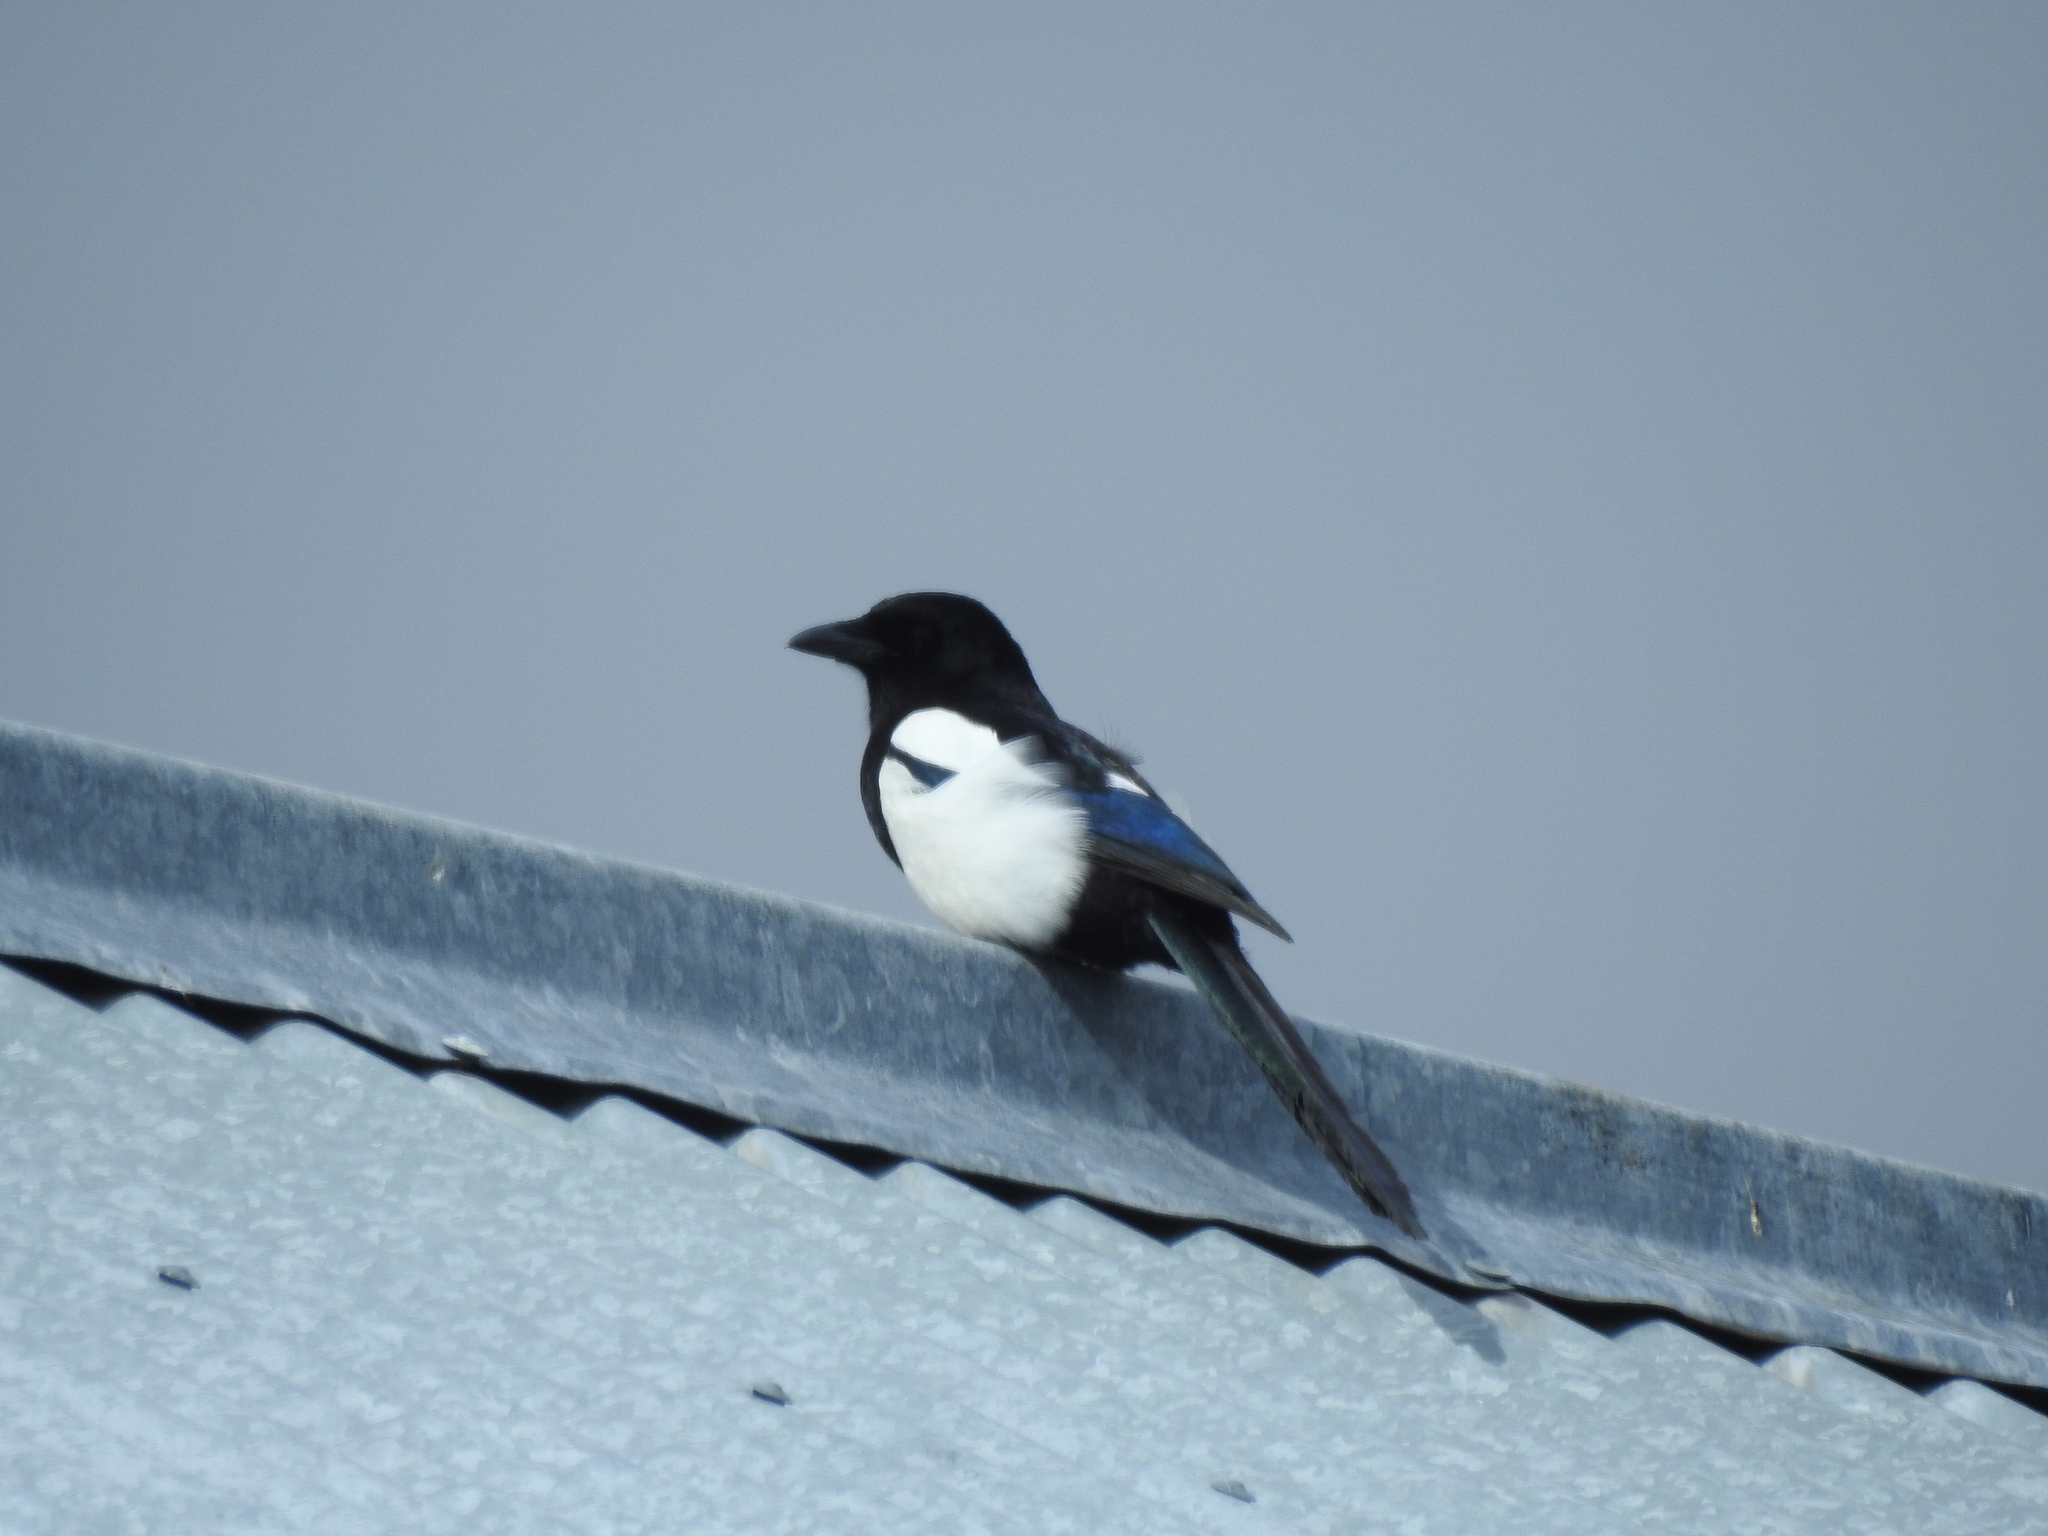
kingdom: Animalia
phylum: Chordata
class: Aves
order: Passeriformes
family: Corvidae
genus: Pica
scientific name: Pica pica
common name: Eurasian magpie
